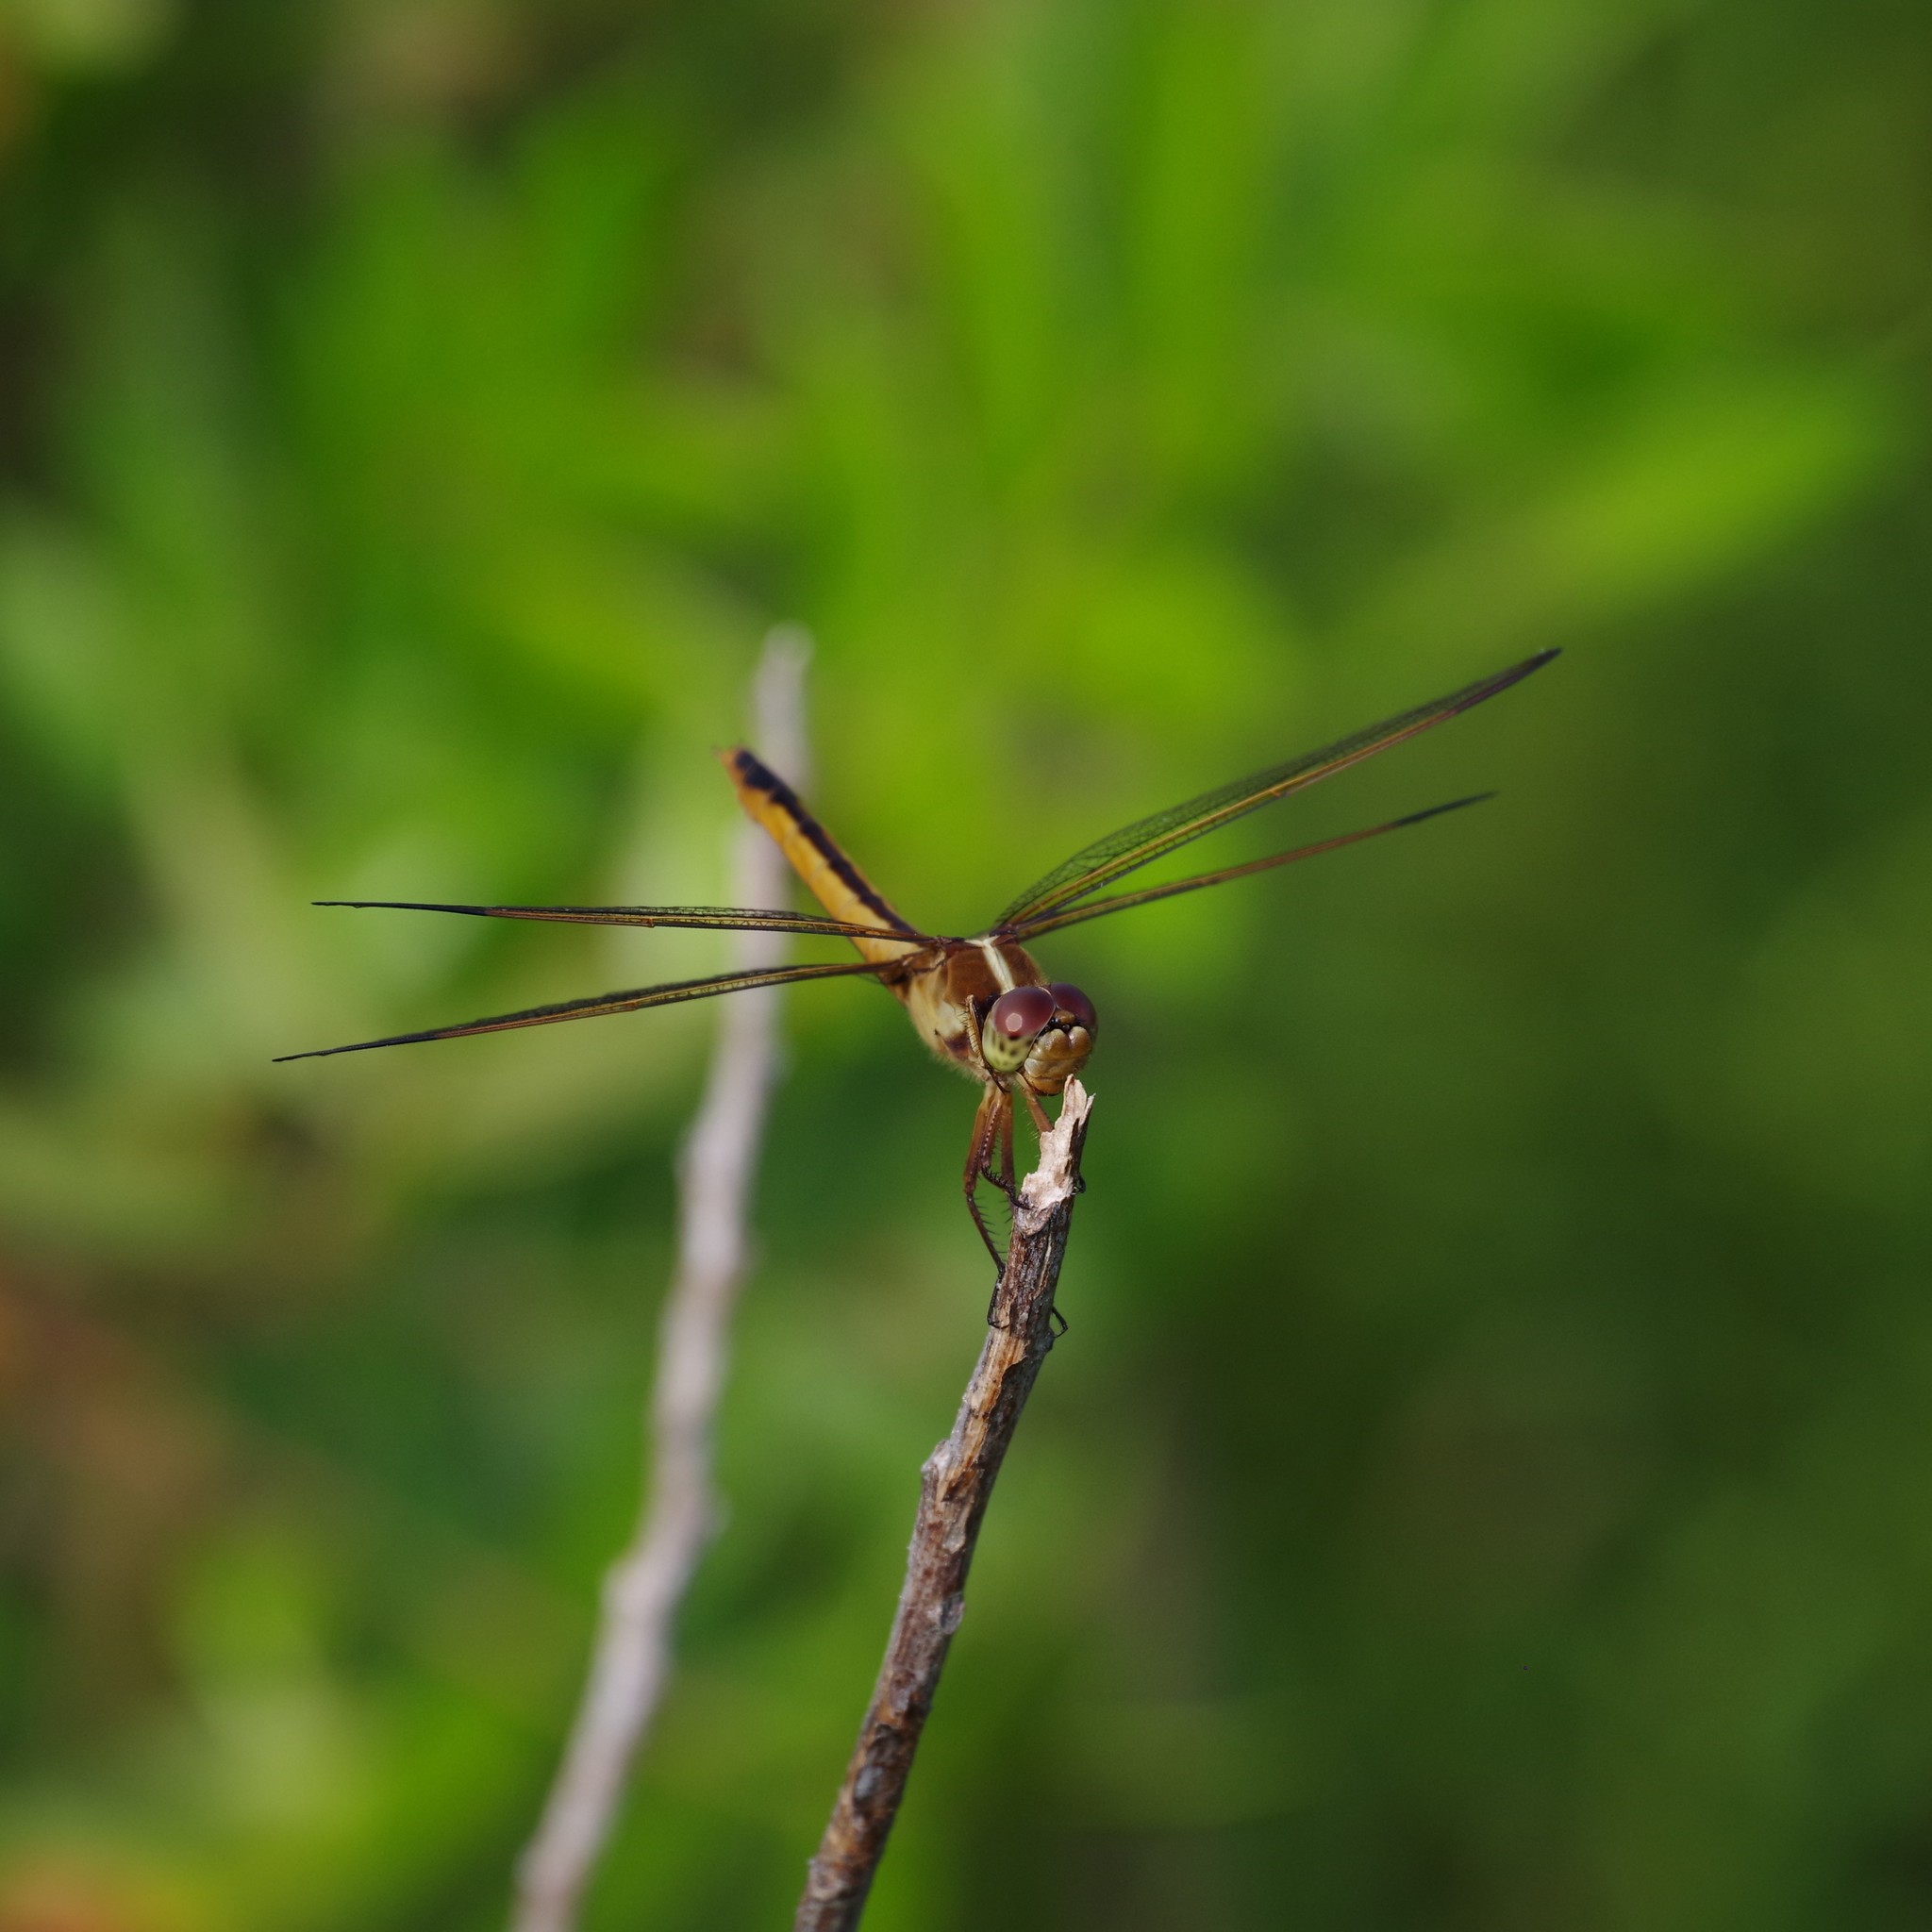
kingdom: Animalia
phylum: Arthropoda
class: Insecta
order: Odonata
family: Libellulidae
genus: Libellula
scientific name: Libellula needhami
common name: Needham's skimmer
